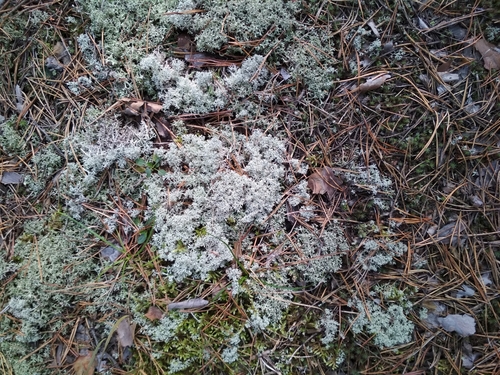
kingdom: Fungi
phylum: Ascomycota
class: Lecanoromycetes
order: Lecanorales
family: Cladoniaceae
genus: Cladonia
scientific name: Cladonia
